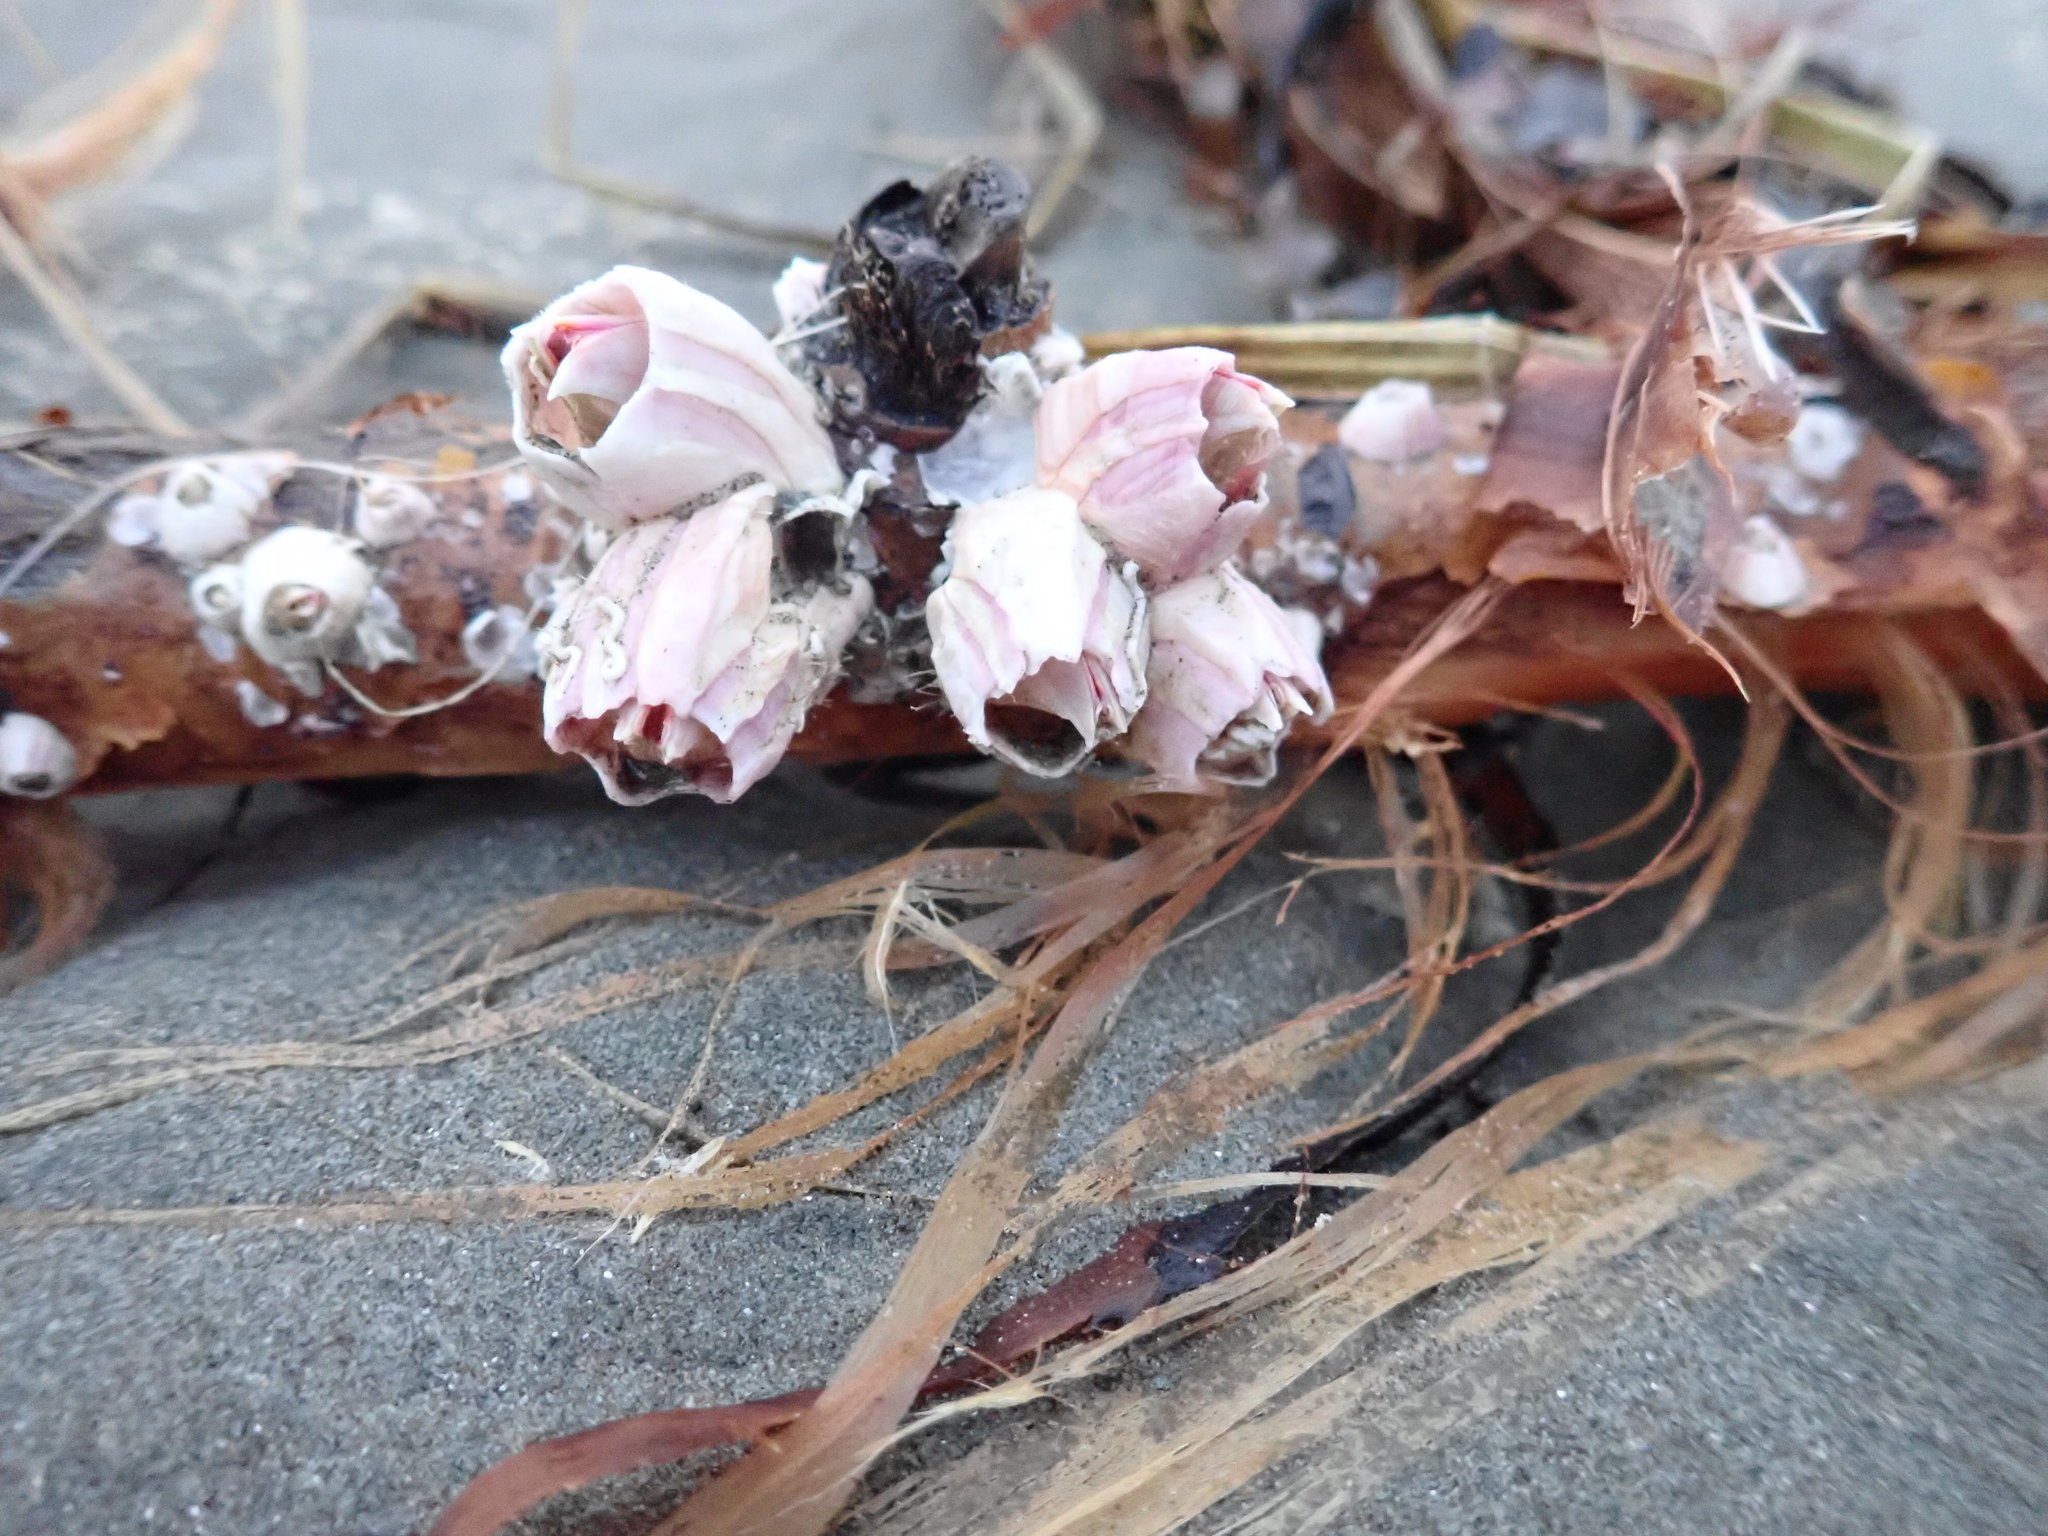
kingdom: Animalia
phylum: Arthropoda
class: Maxillopoda
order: Sessilia
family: Balanidae
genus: Notomegabalanus
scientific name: Notomegabalanus decorus
